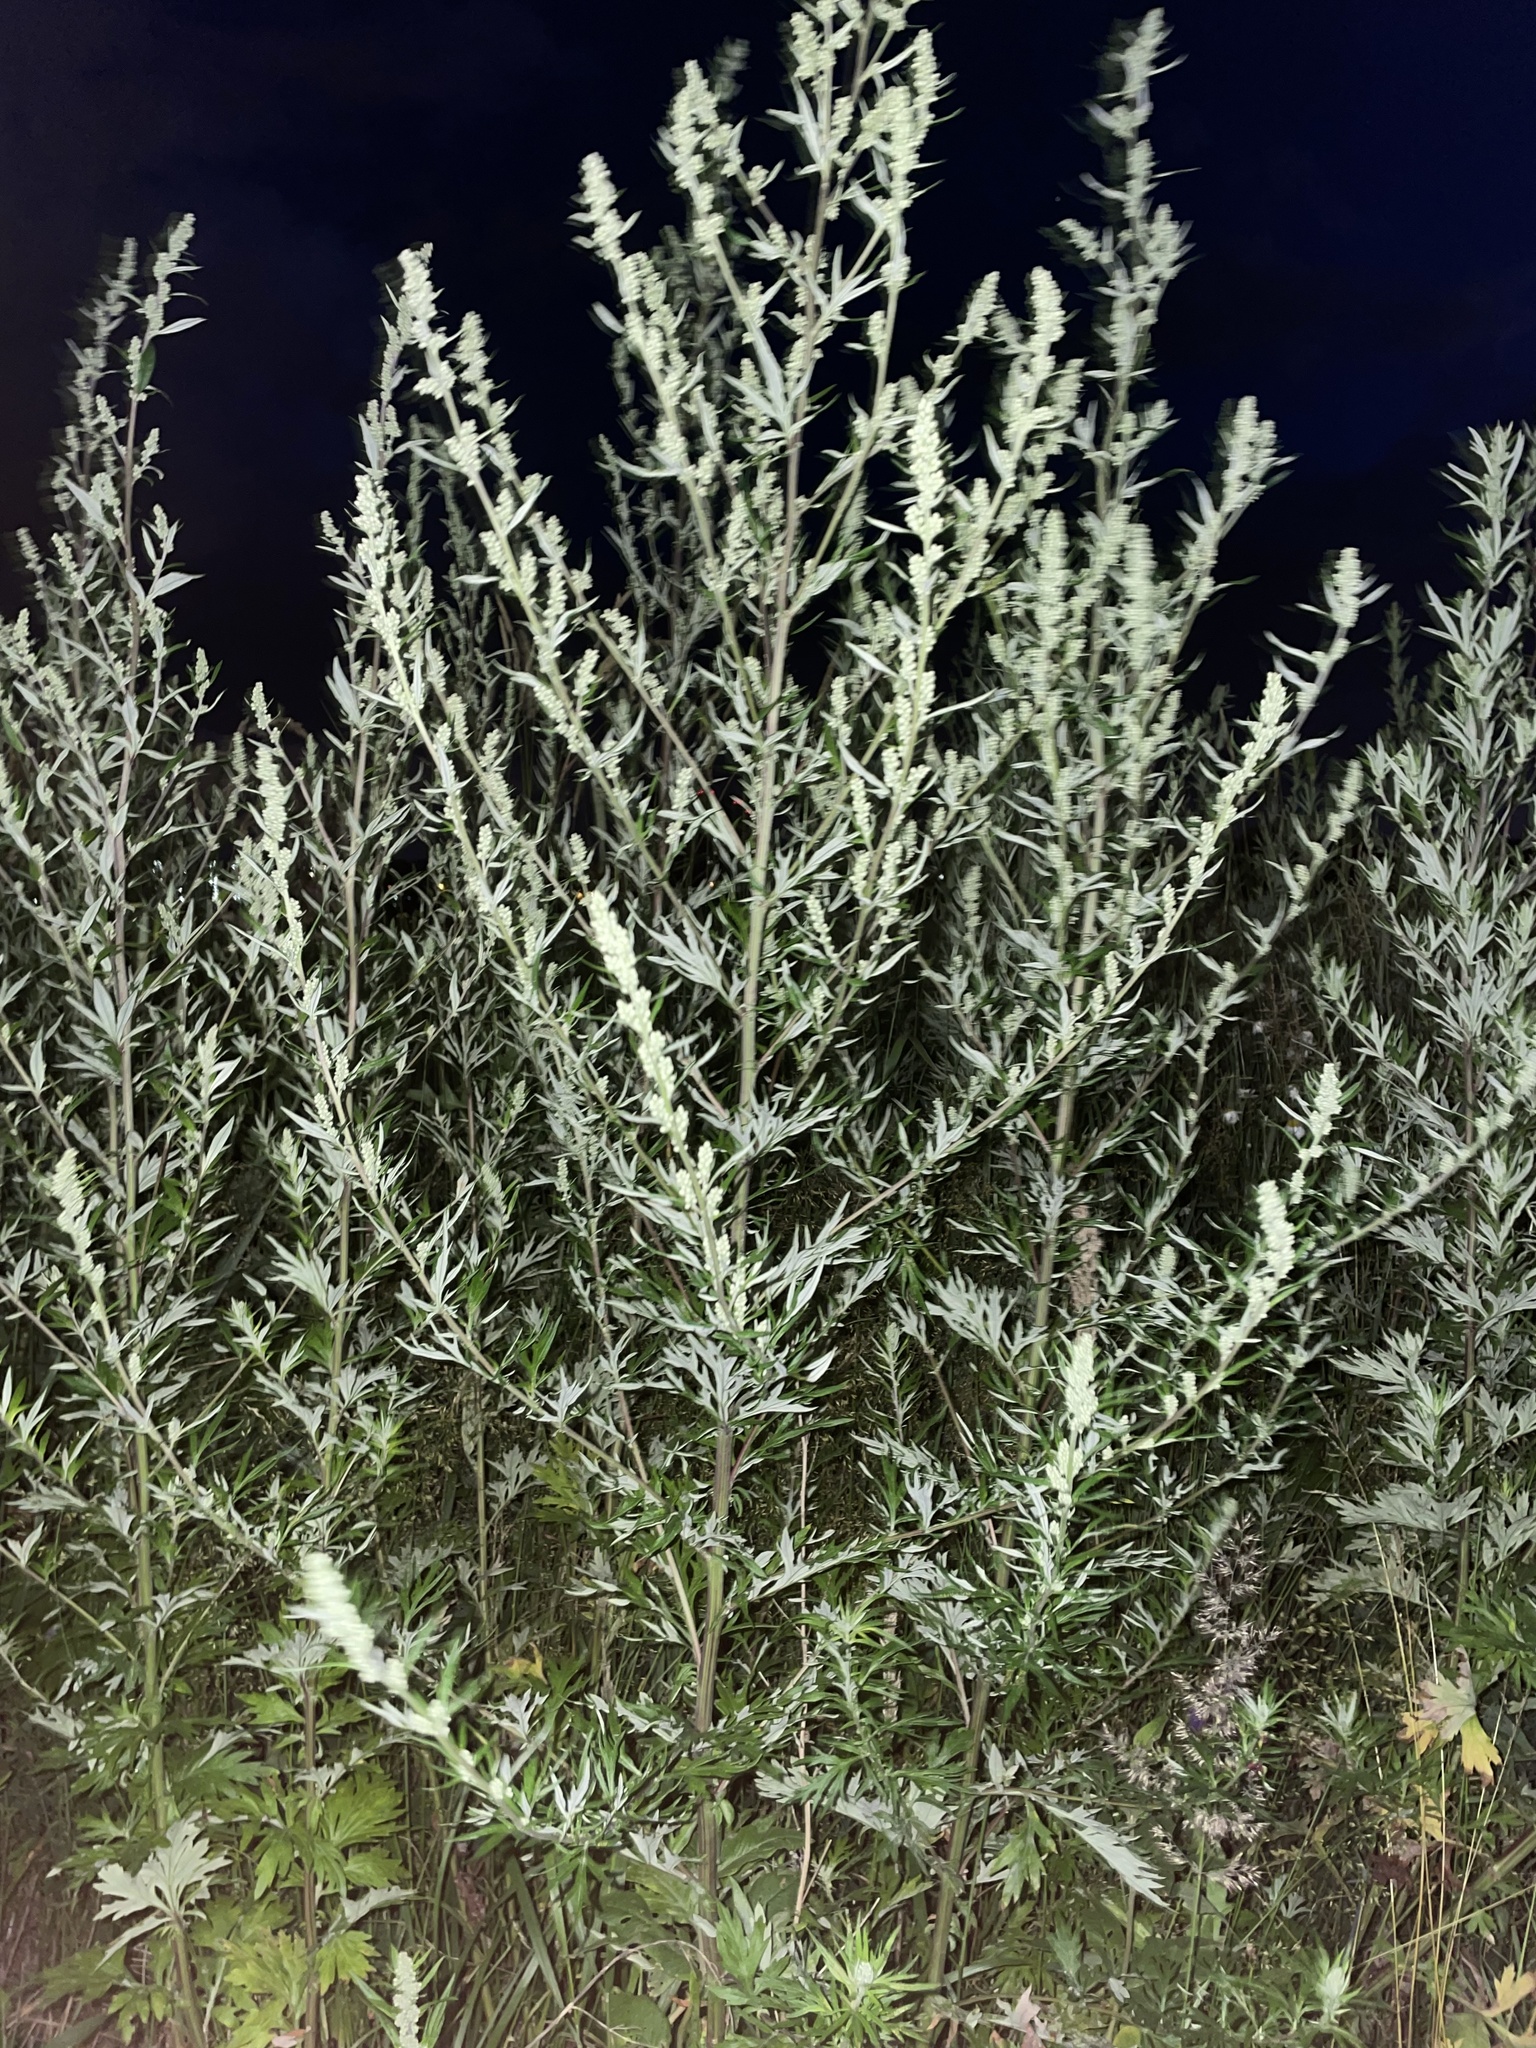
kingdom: Plantae
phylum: Tracheophyta
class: Magnoliopsida
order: Asterales
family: Asteraceae
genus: Artemisia
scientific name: Artemisia vulgaris
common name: Mugwort
